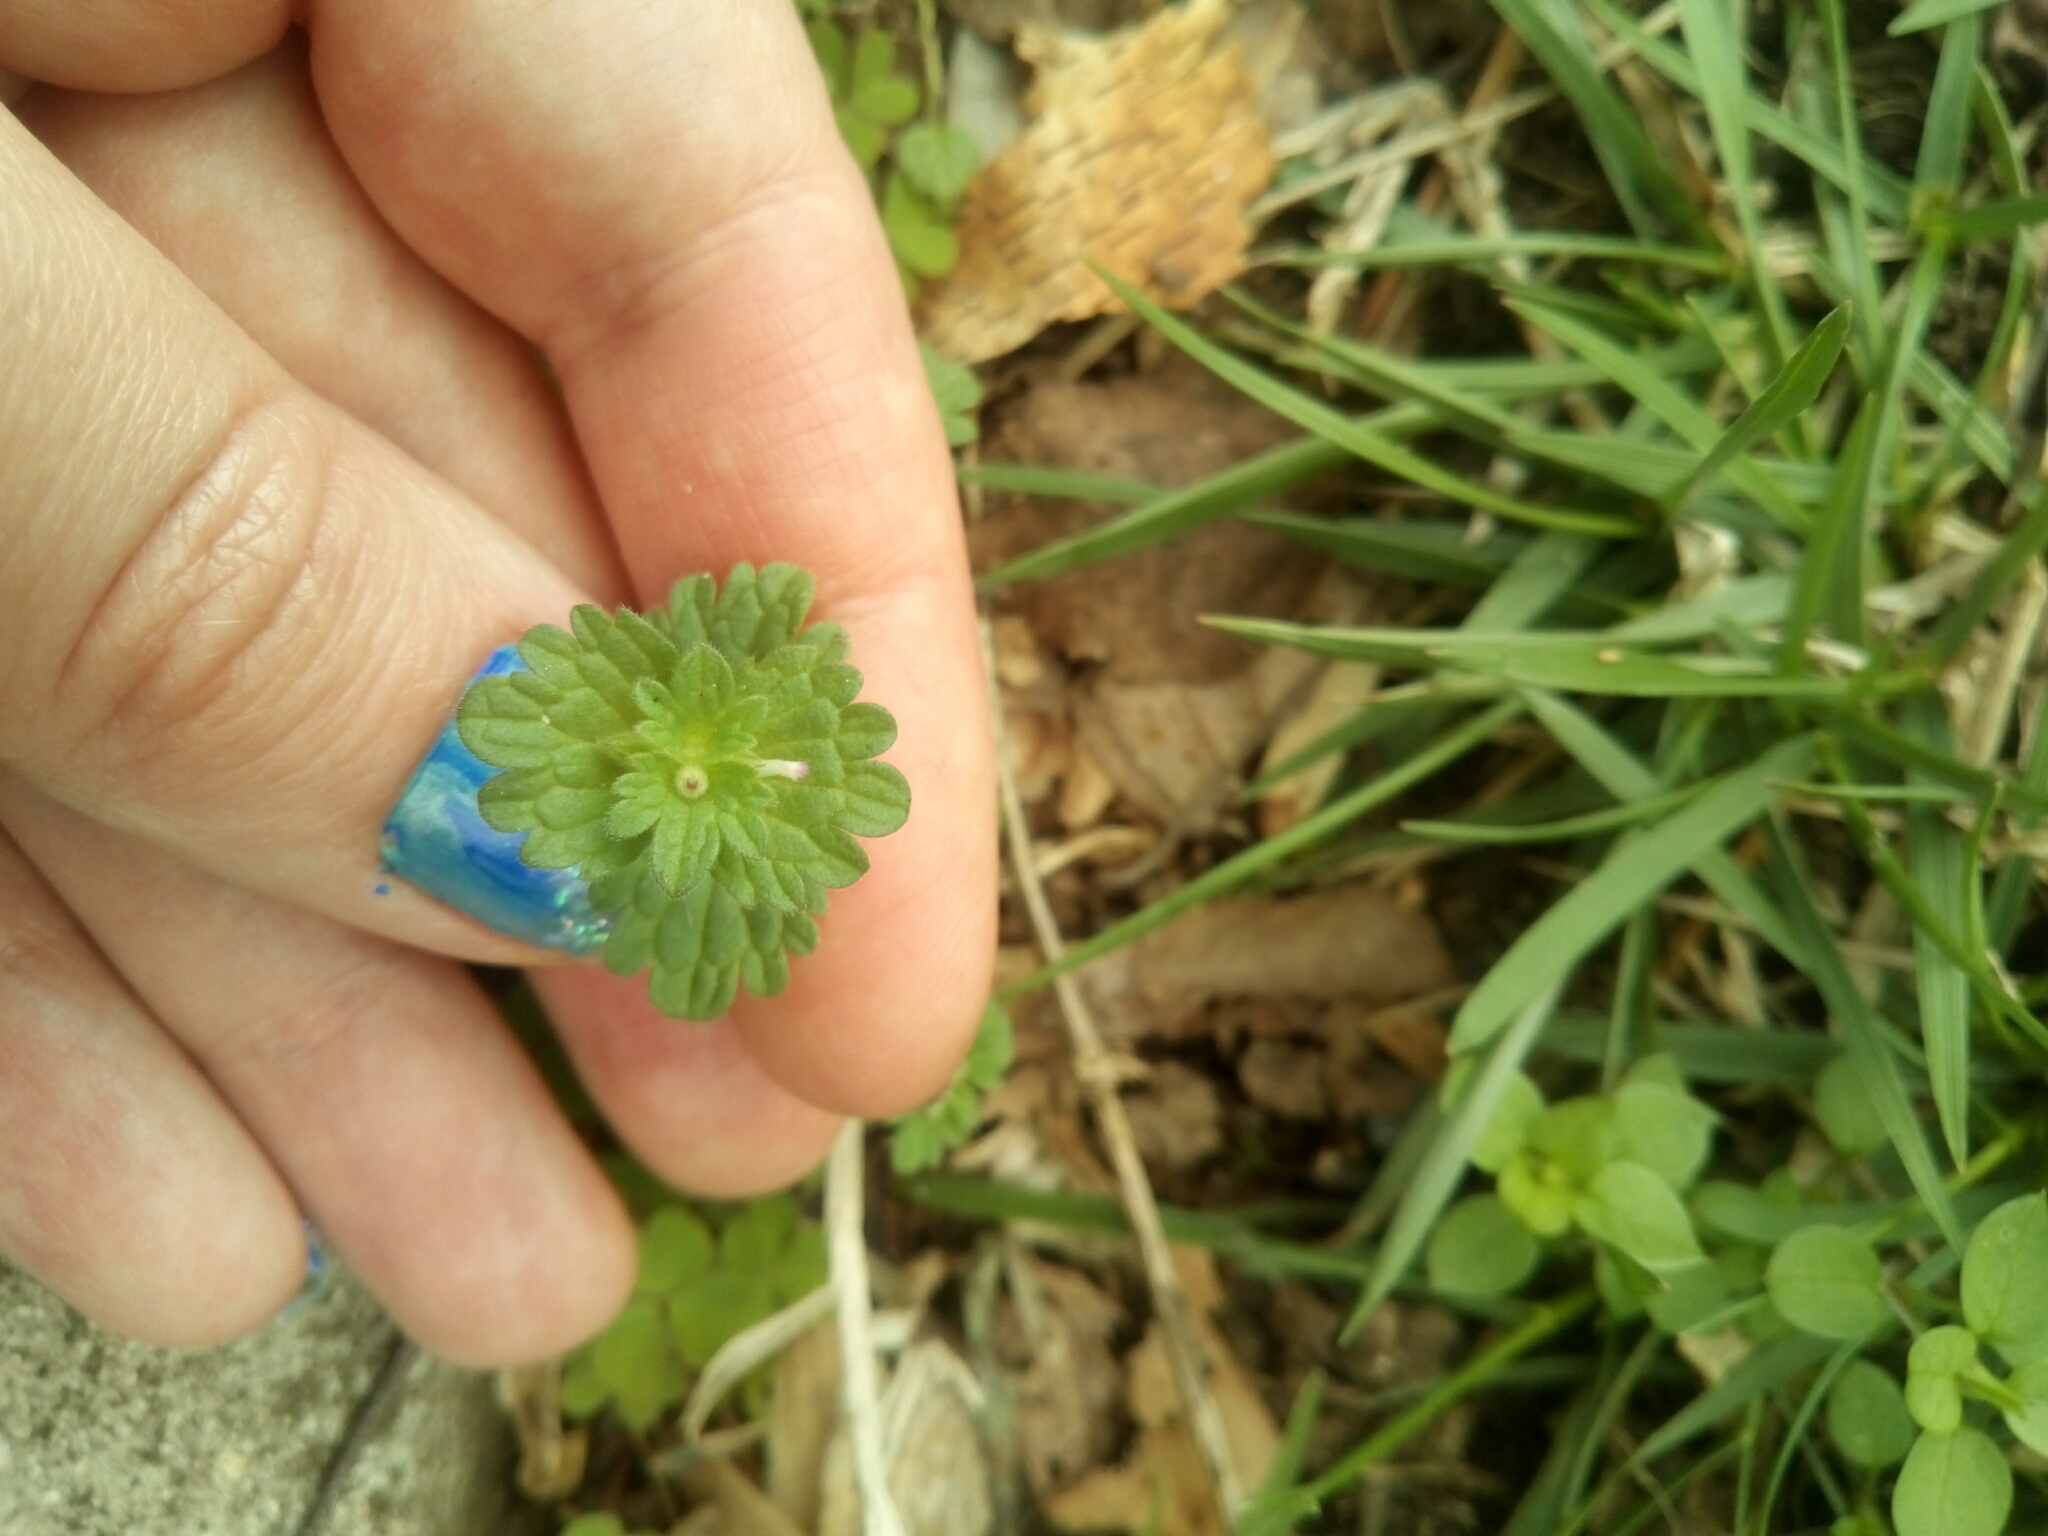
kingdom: Plantae
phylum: Tracheophyta
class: Magnoliopsida
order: Lamiales
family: Lamiaceae
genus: Lamium
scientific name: Lamium amplexicaule
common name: Henbit dead-nettle
